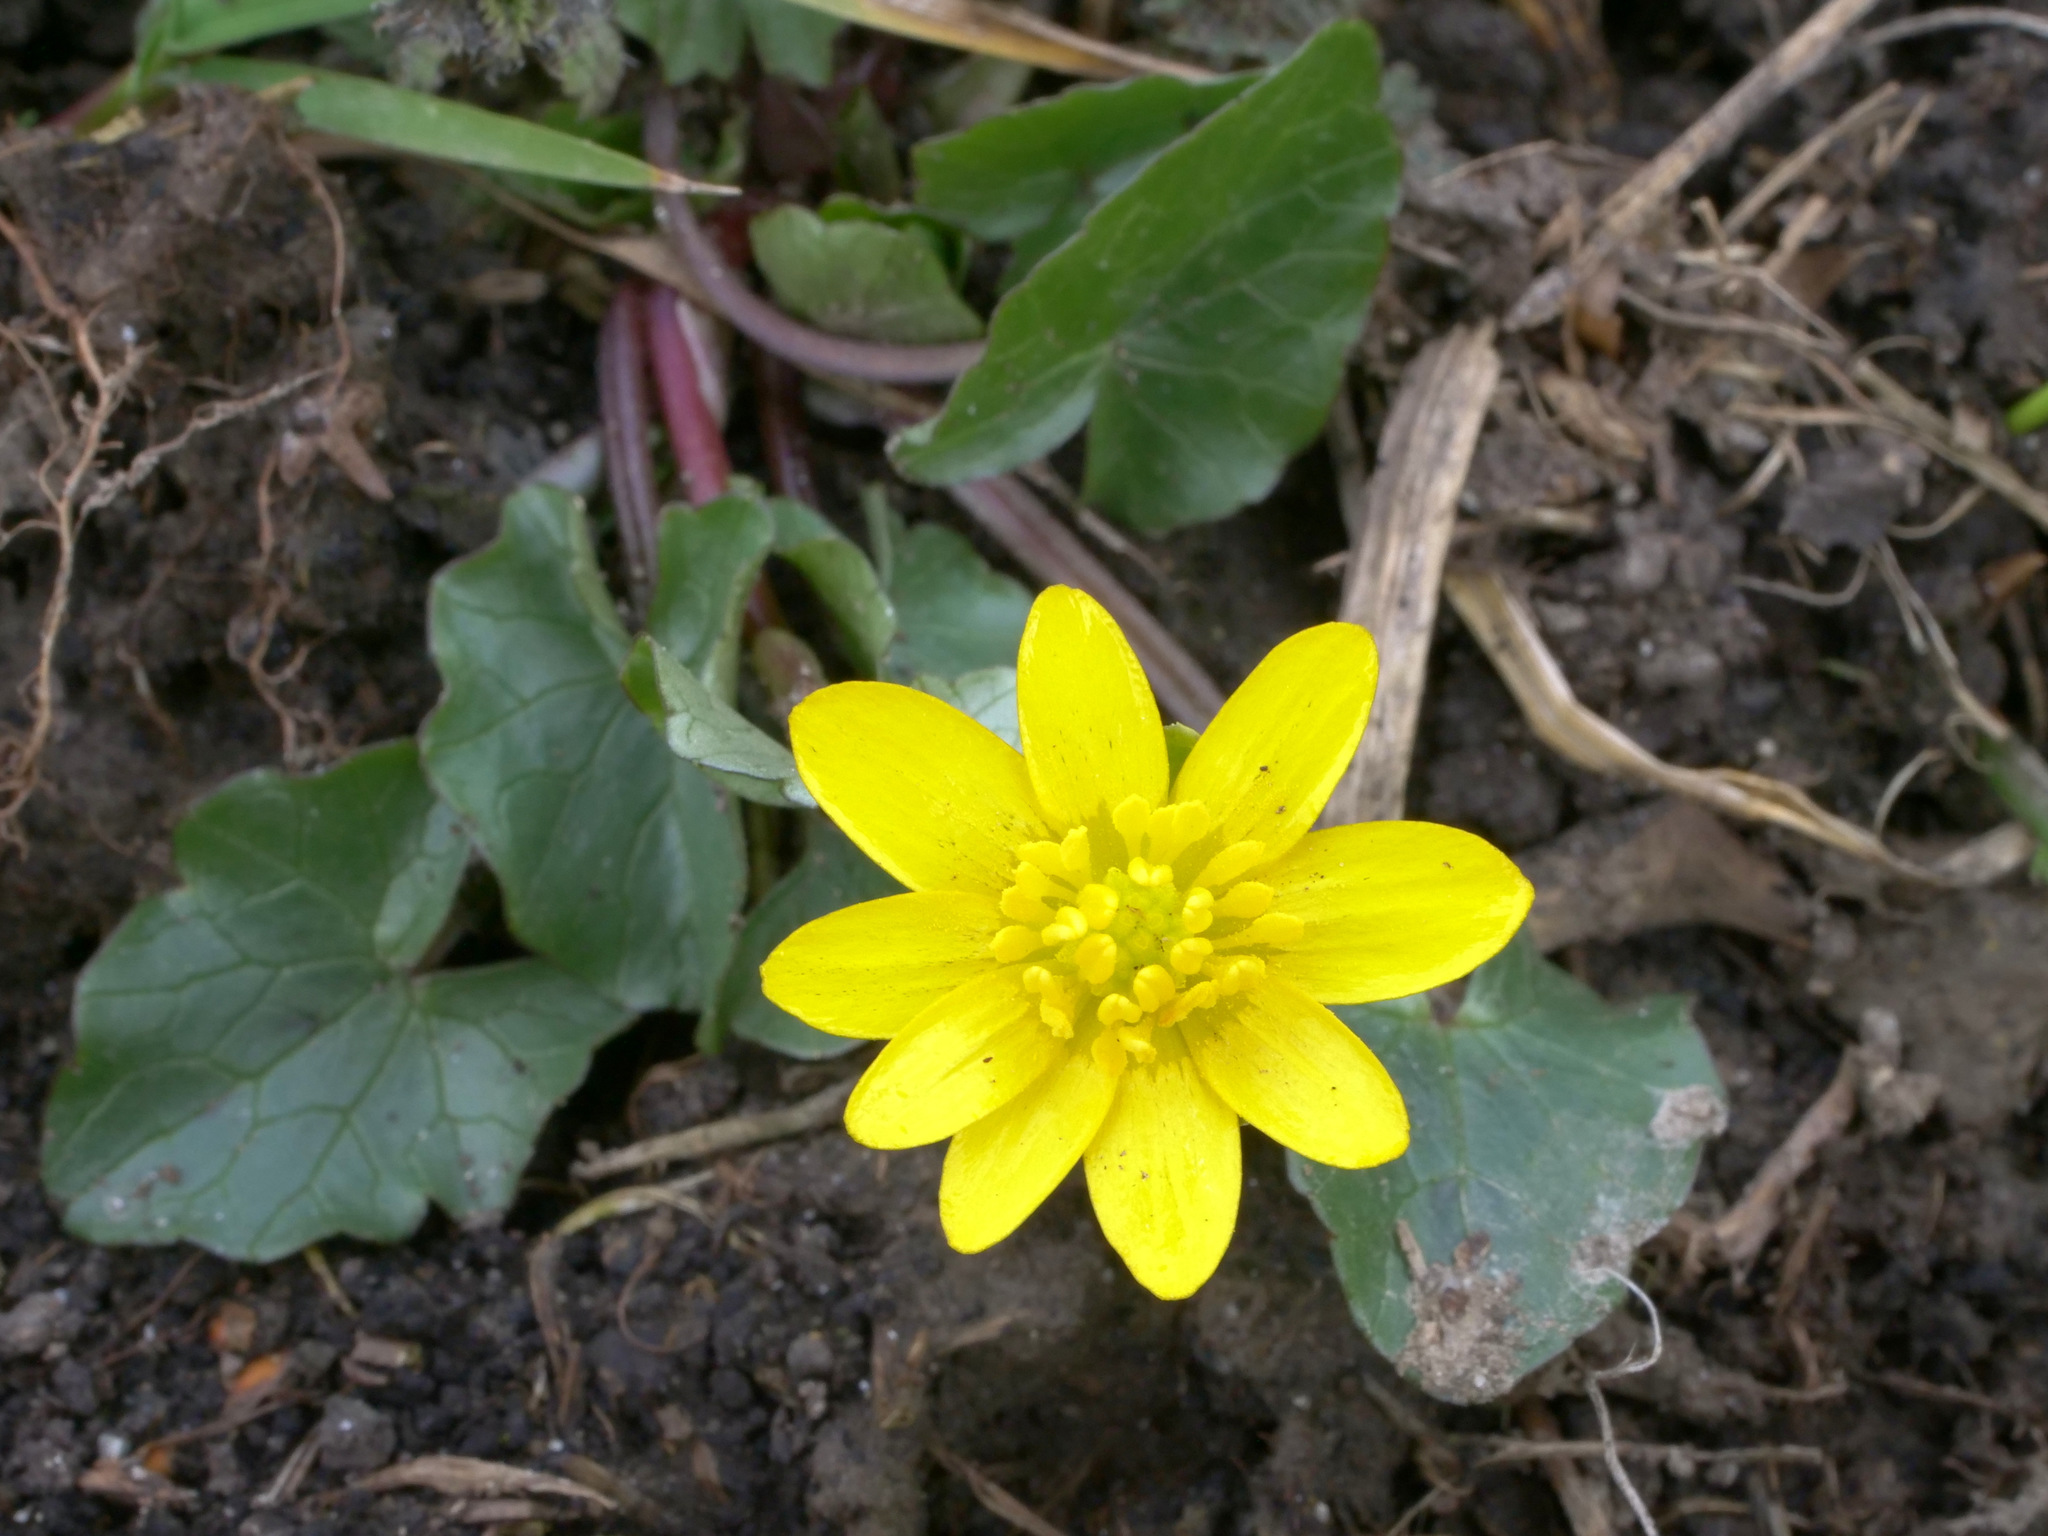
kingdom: Plantae
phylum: Tracheophyta
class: Magnoliopsida
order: Ranunculales
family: Ranunculaceae
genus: Ficaria
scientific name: Ficaria verna
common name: Lesser celandine
